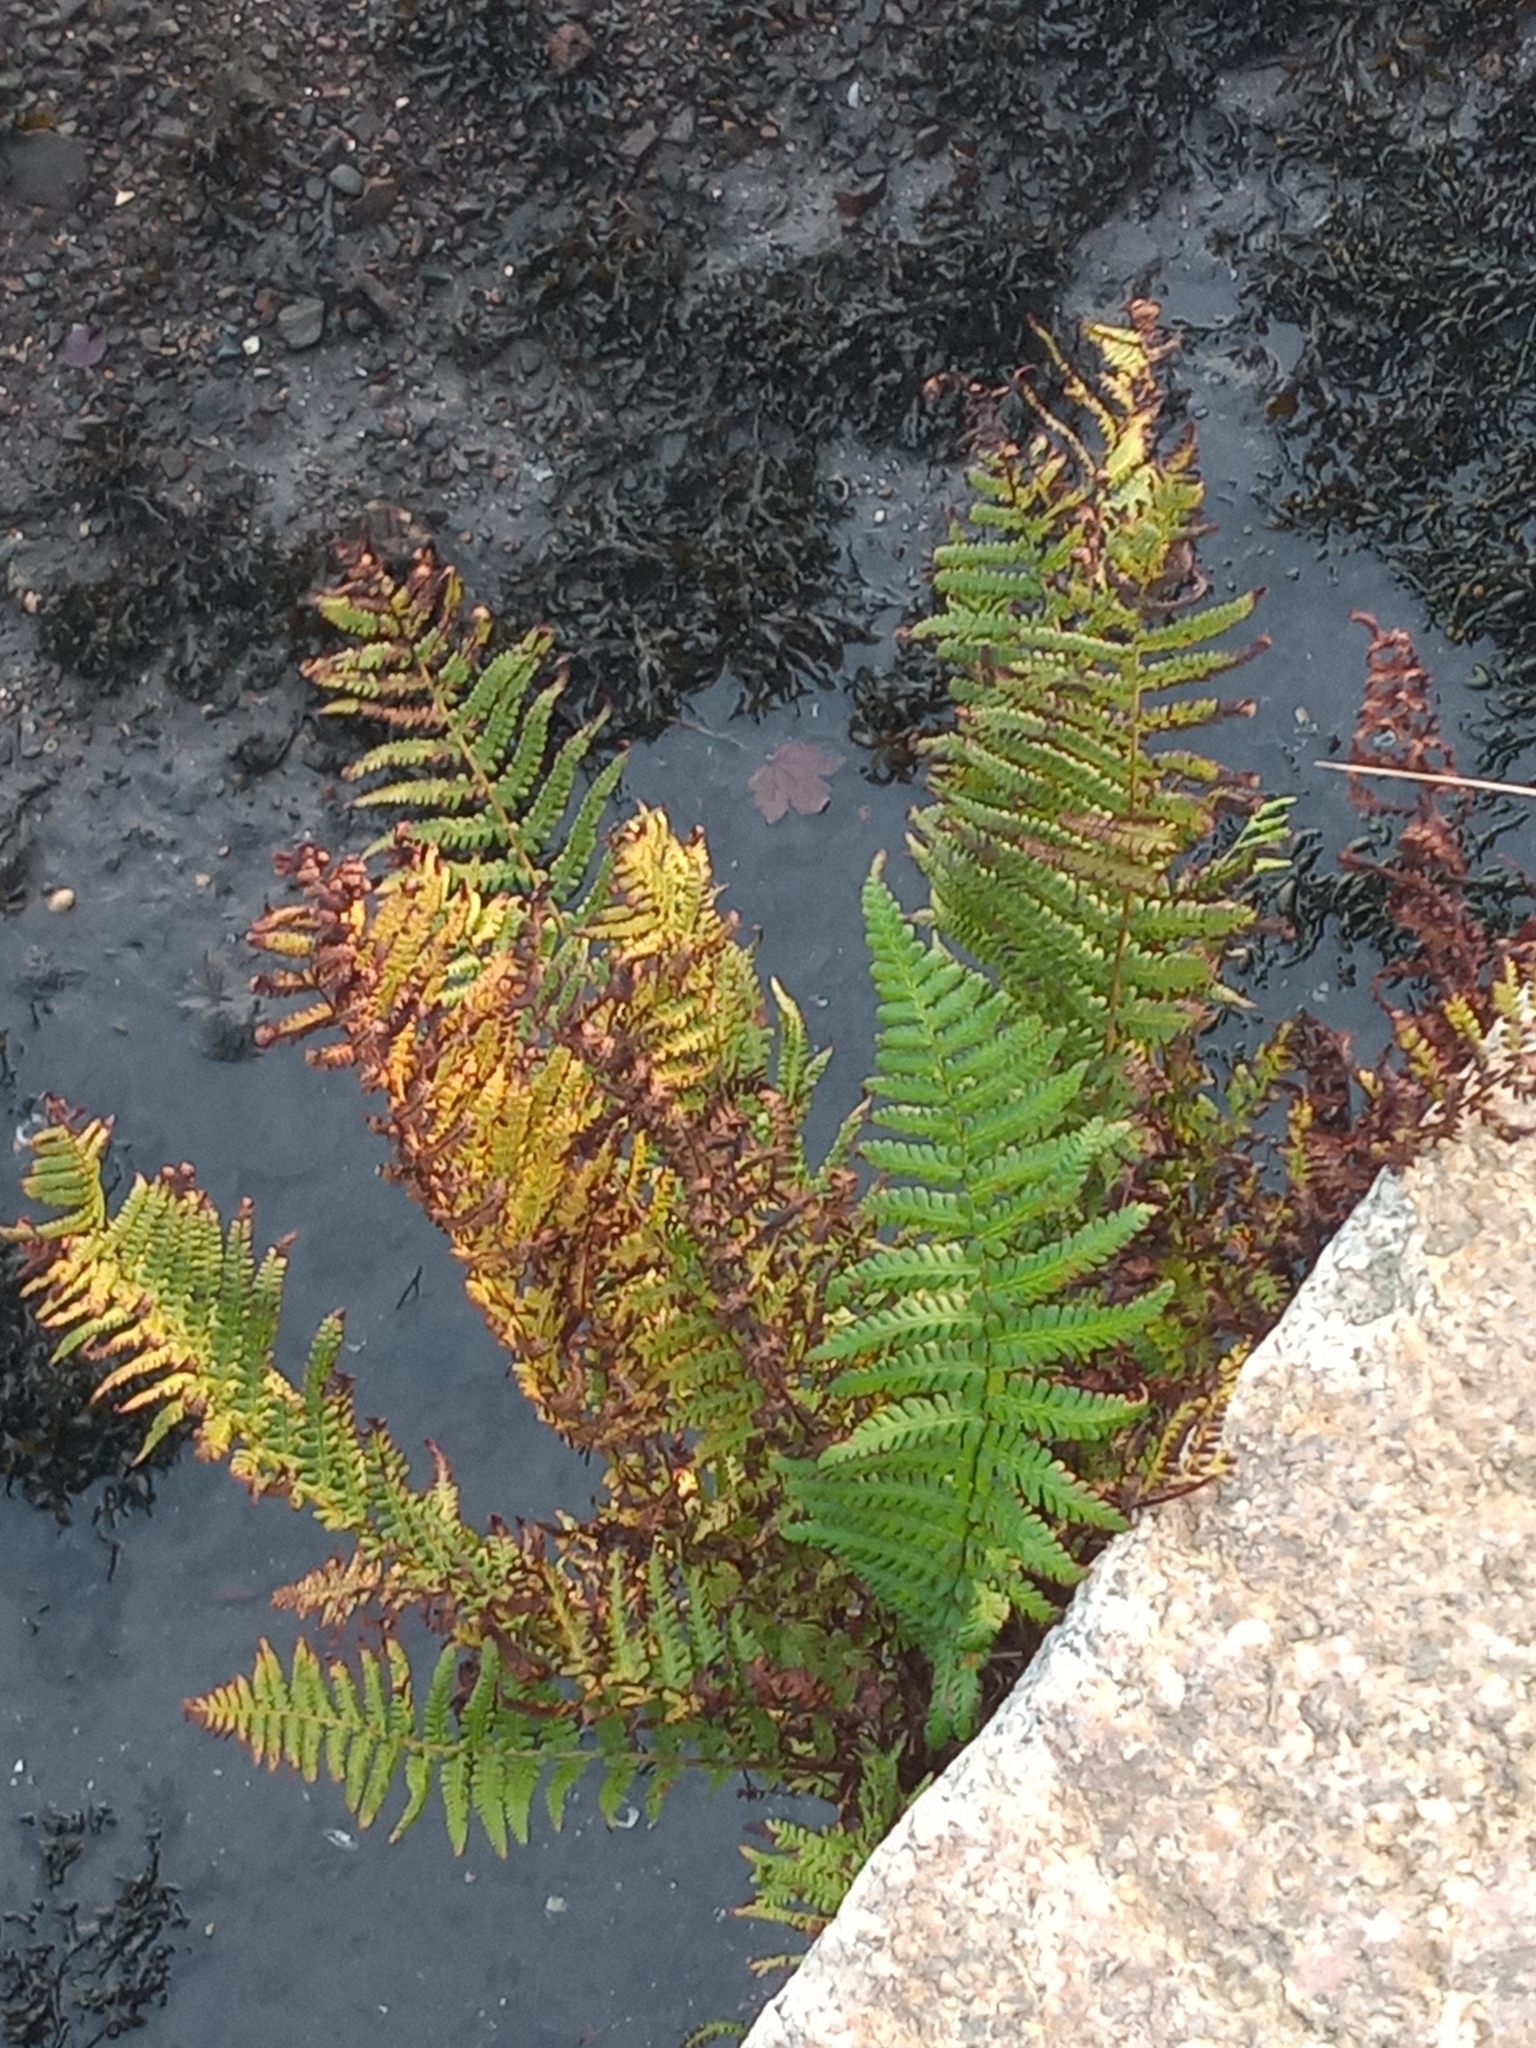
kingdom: Plantae
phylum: Tracheophyta
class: Polypodiopsida
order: Polypodiales
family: Dryopteridaceae
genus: Dryopteris
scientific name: Dryopteris
